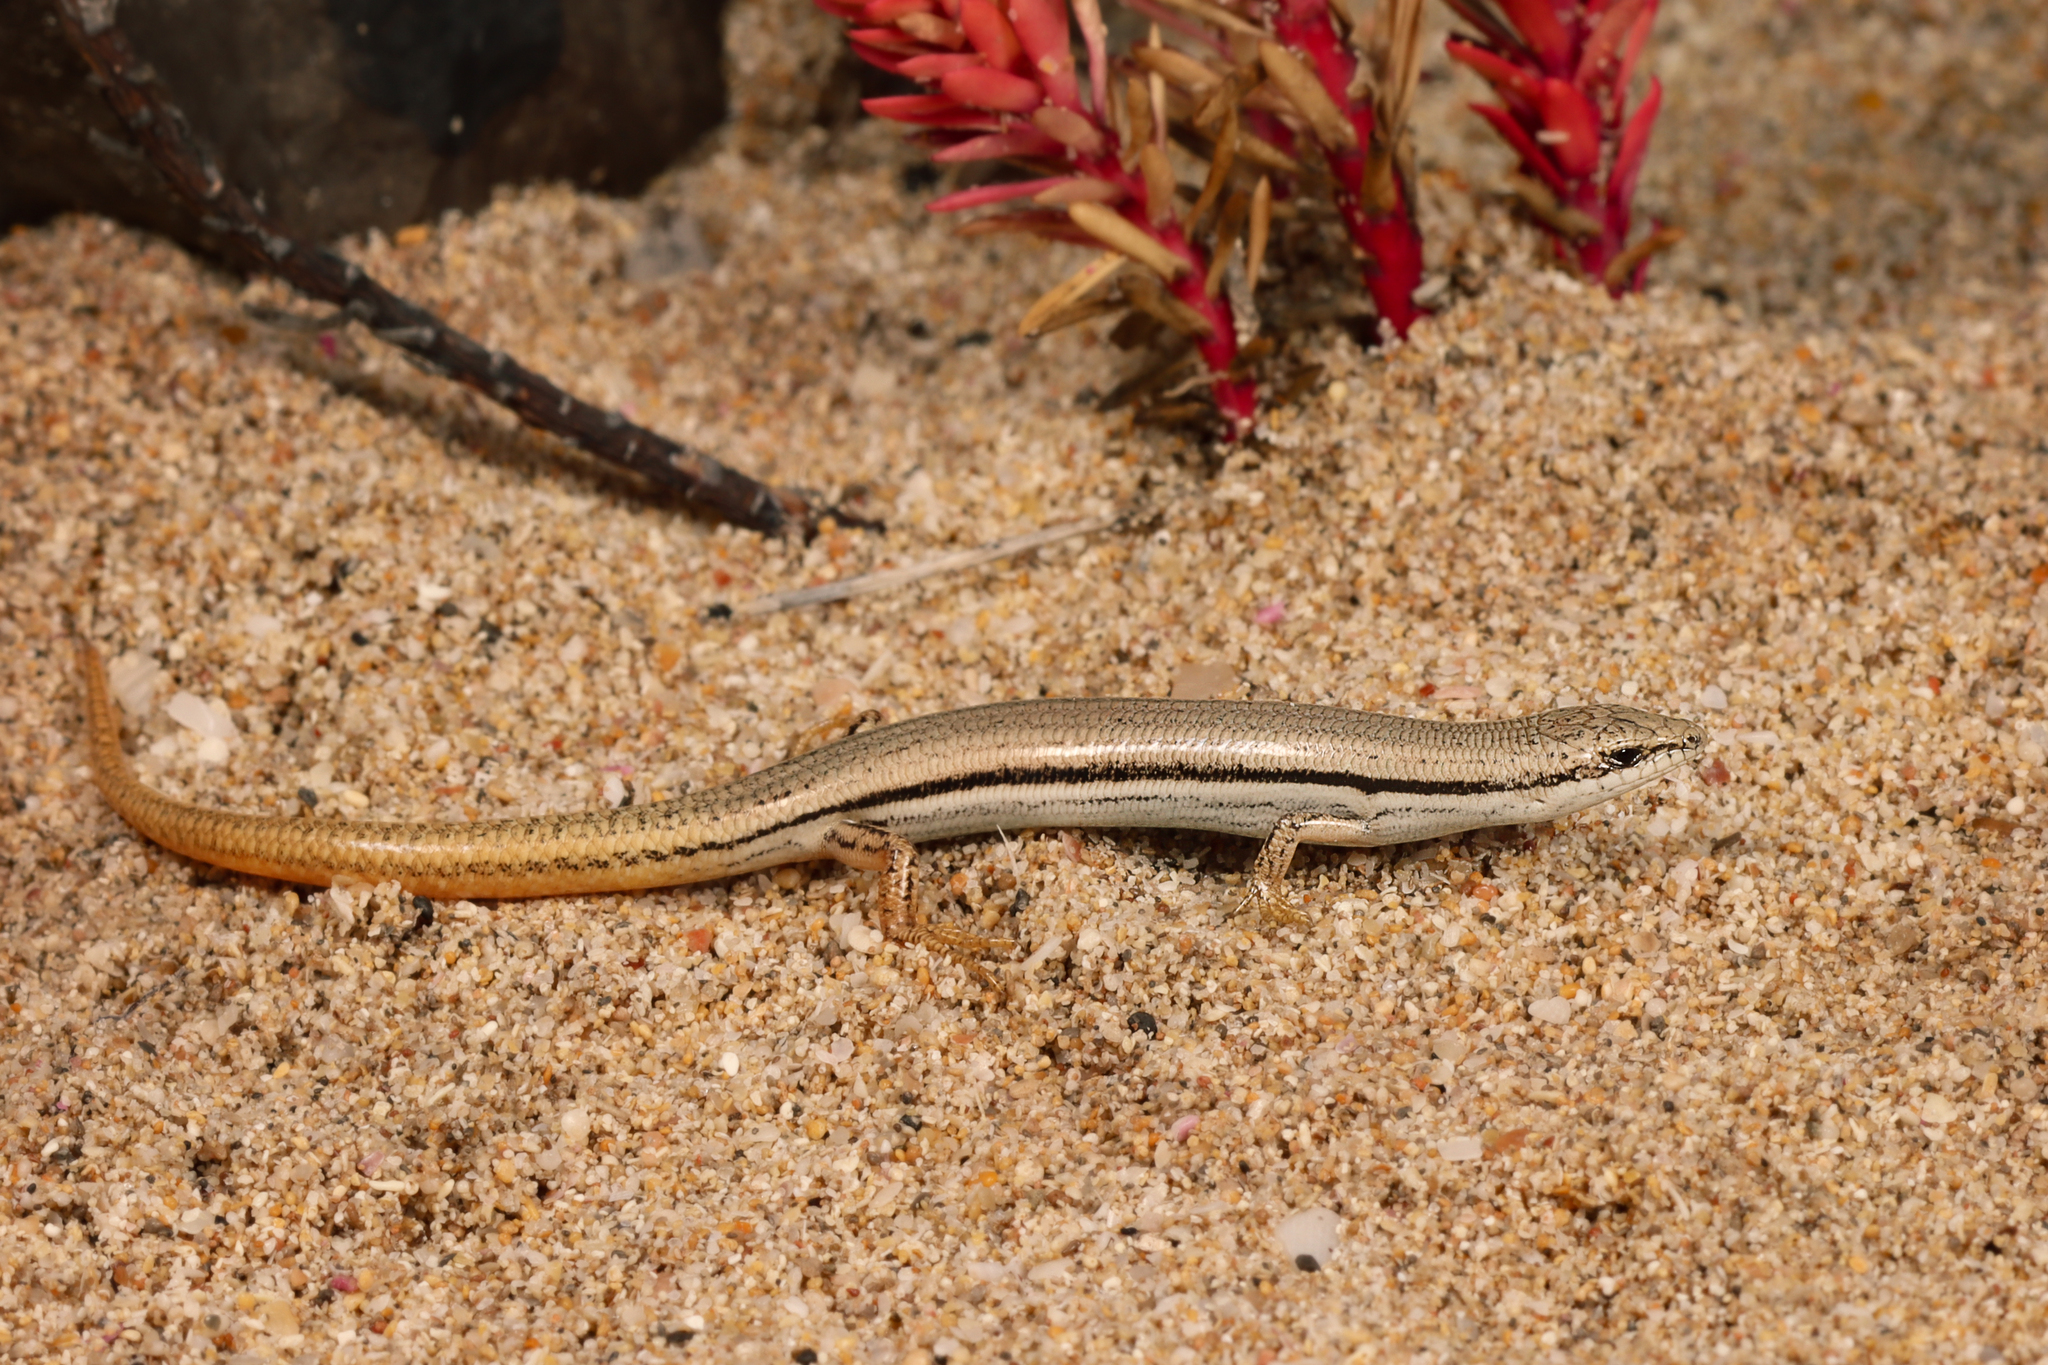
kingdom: Animalia
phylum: Chordata
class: Squamata
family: Scincidae
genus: Lerista
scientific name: Lerista arenicola
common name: Bight slider
